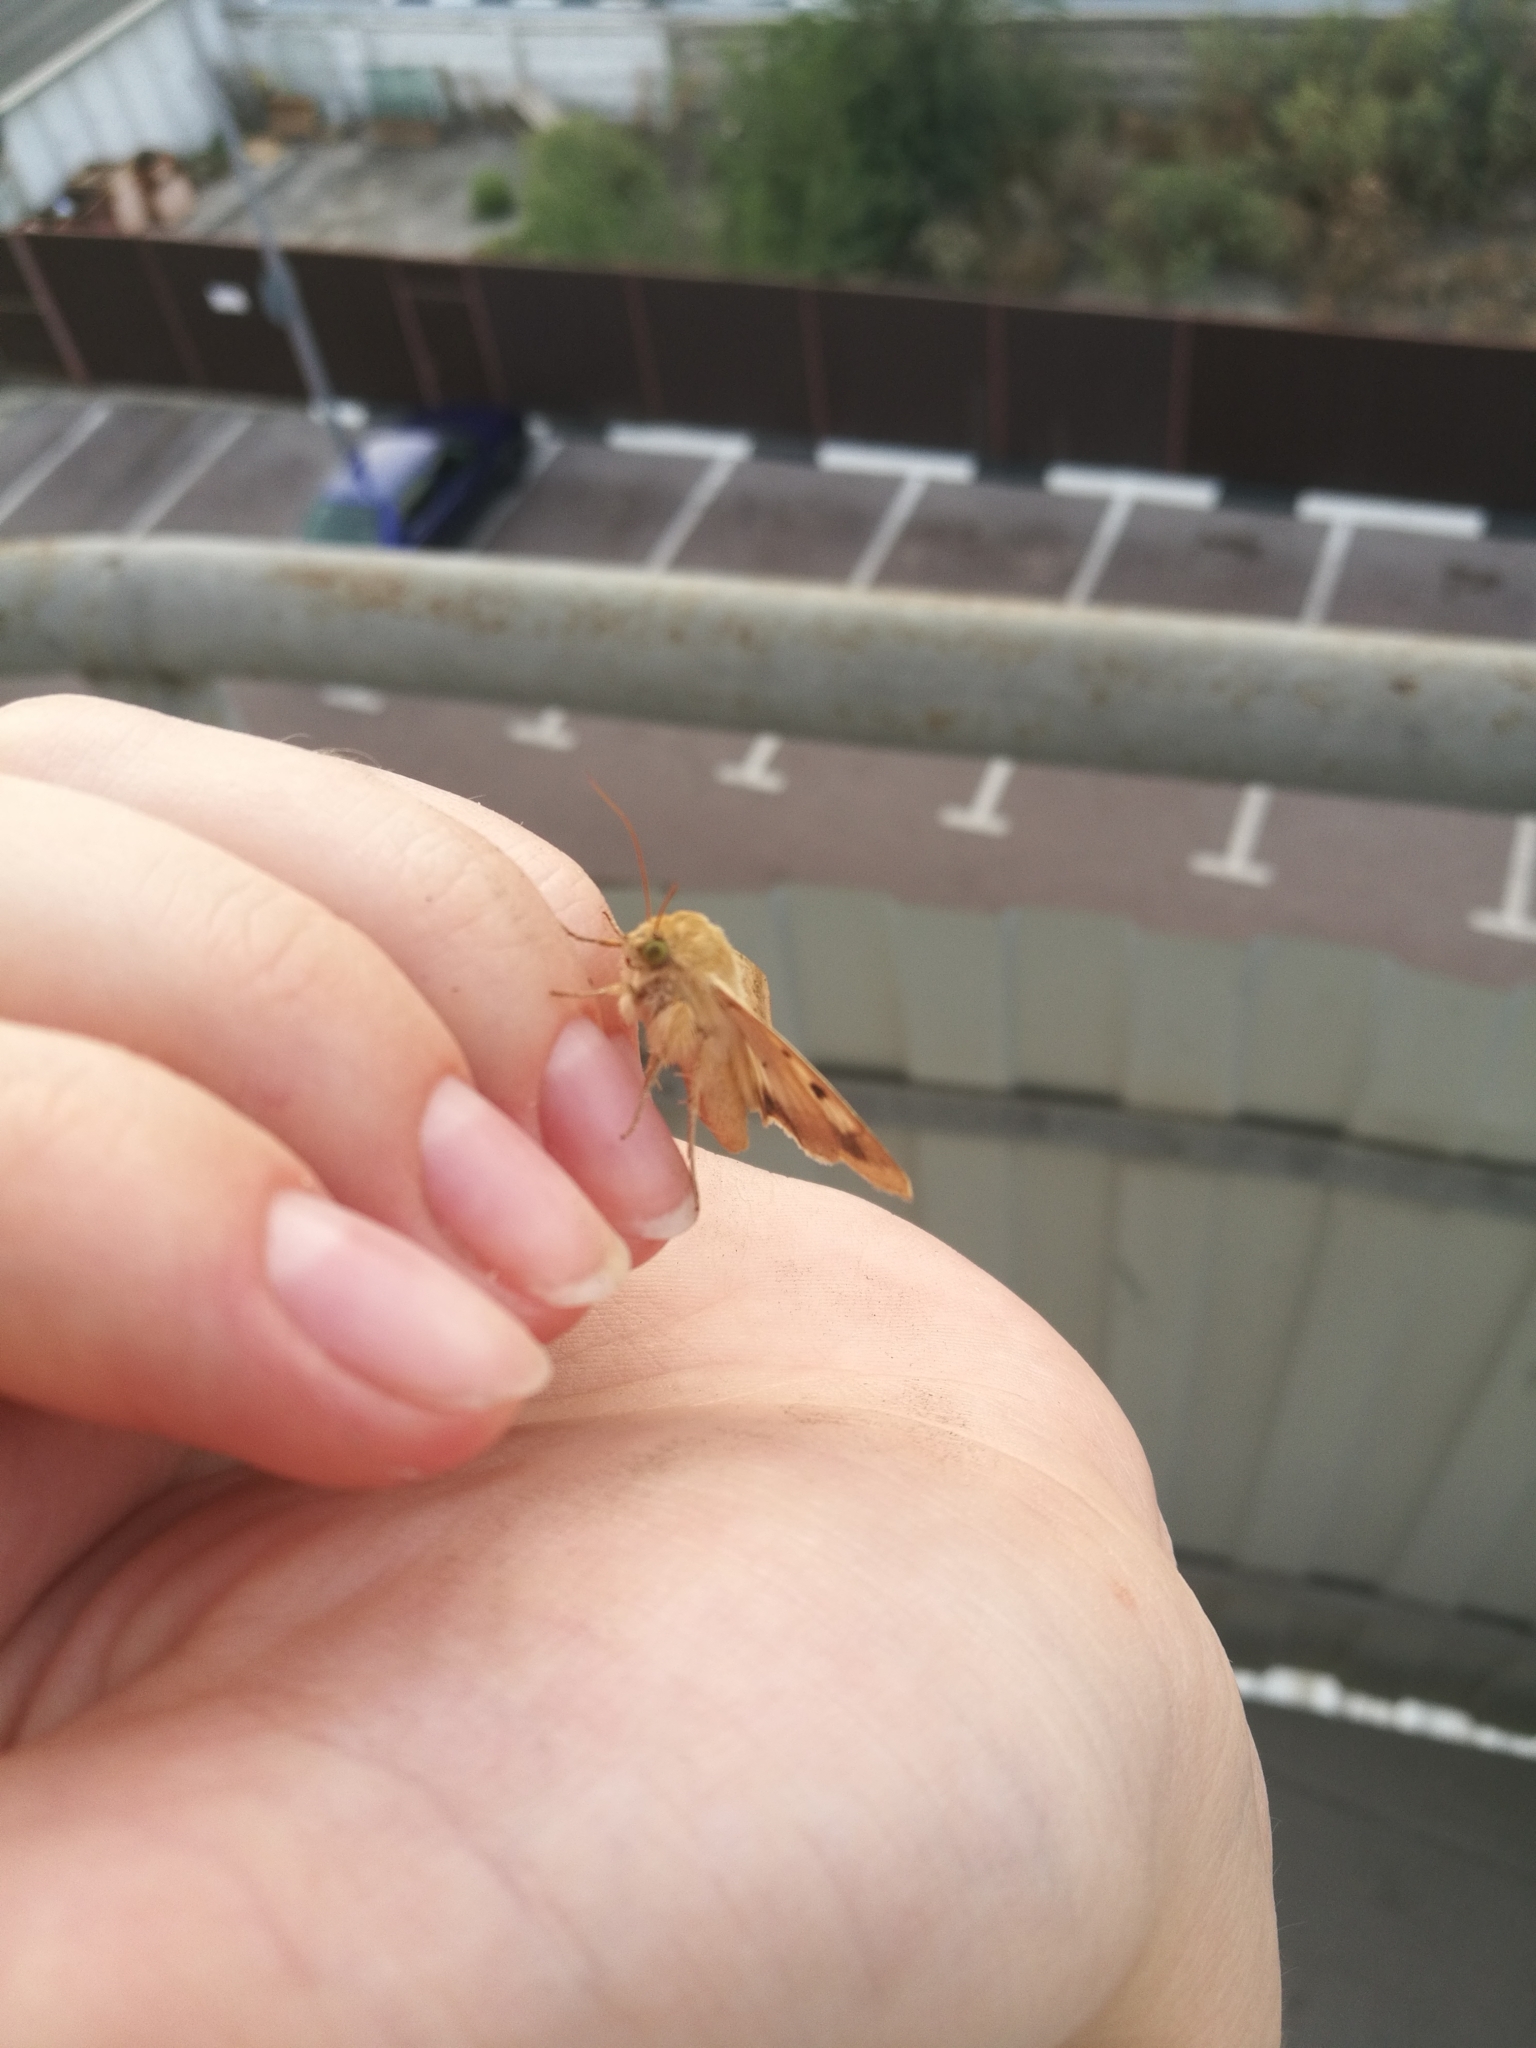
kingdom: Animalia
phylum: Arthropoda
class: Insecta
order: Lepidoptera
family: Noctuidae
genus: Helicoverpa
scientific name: Helicoverpa armigera
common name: Cotton bollworm
